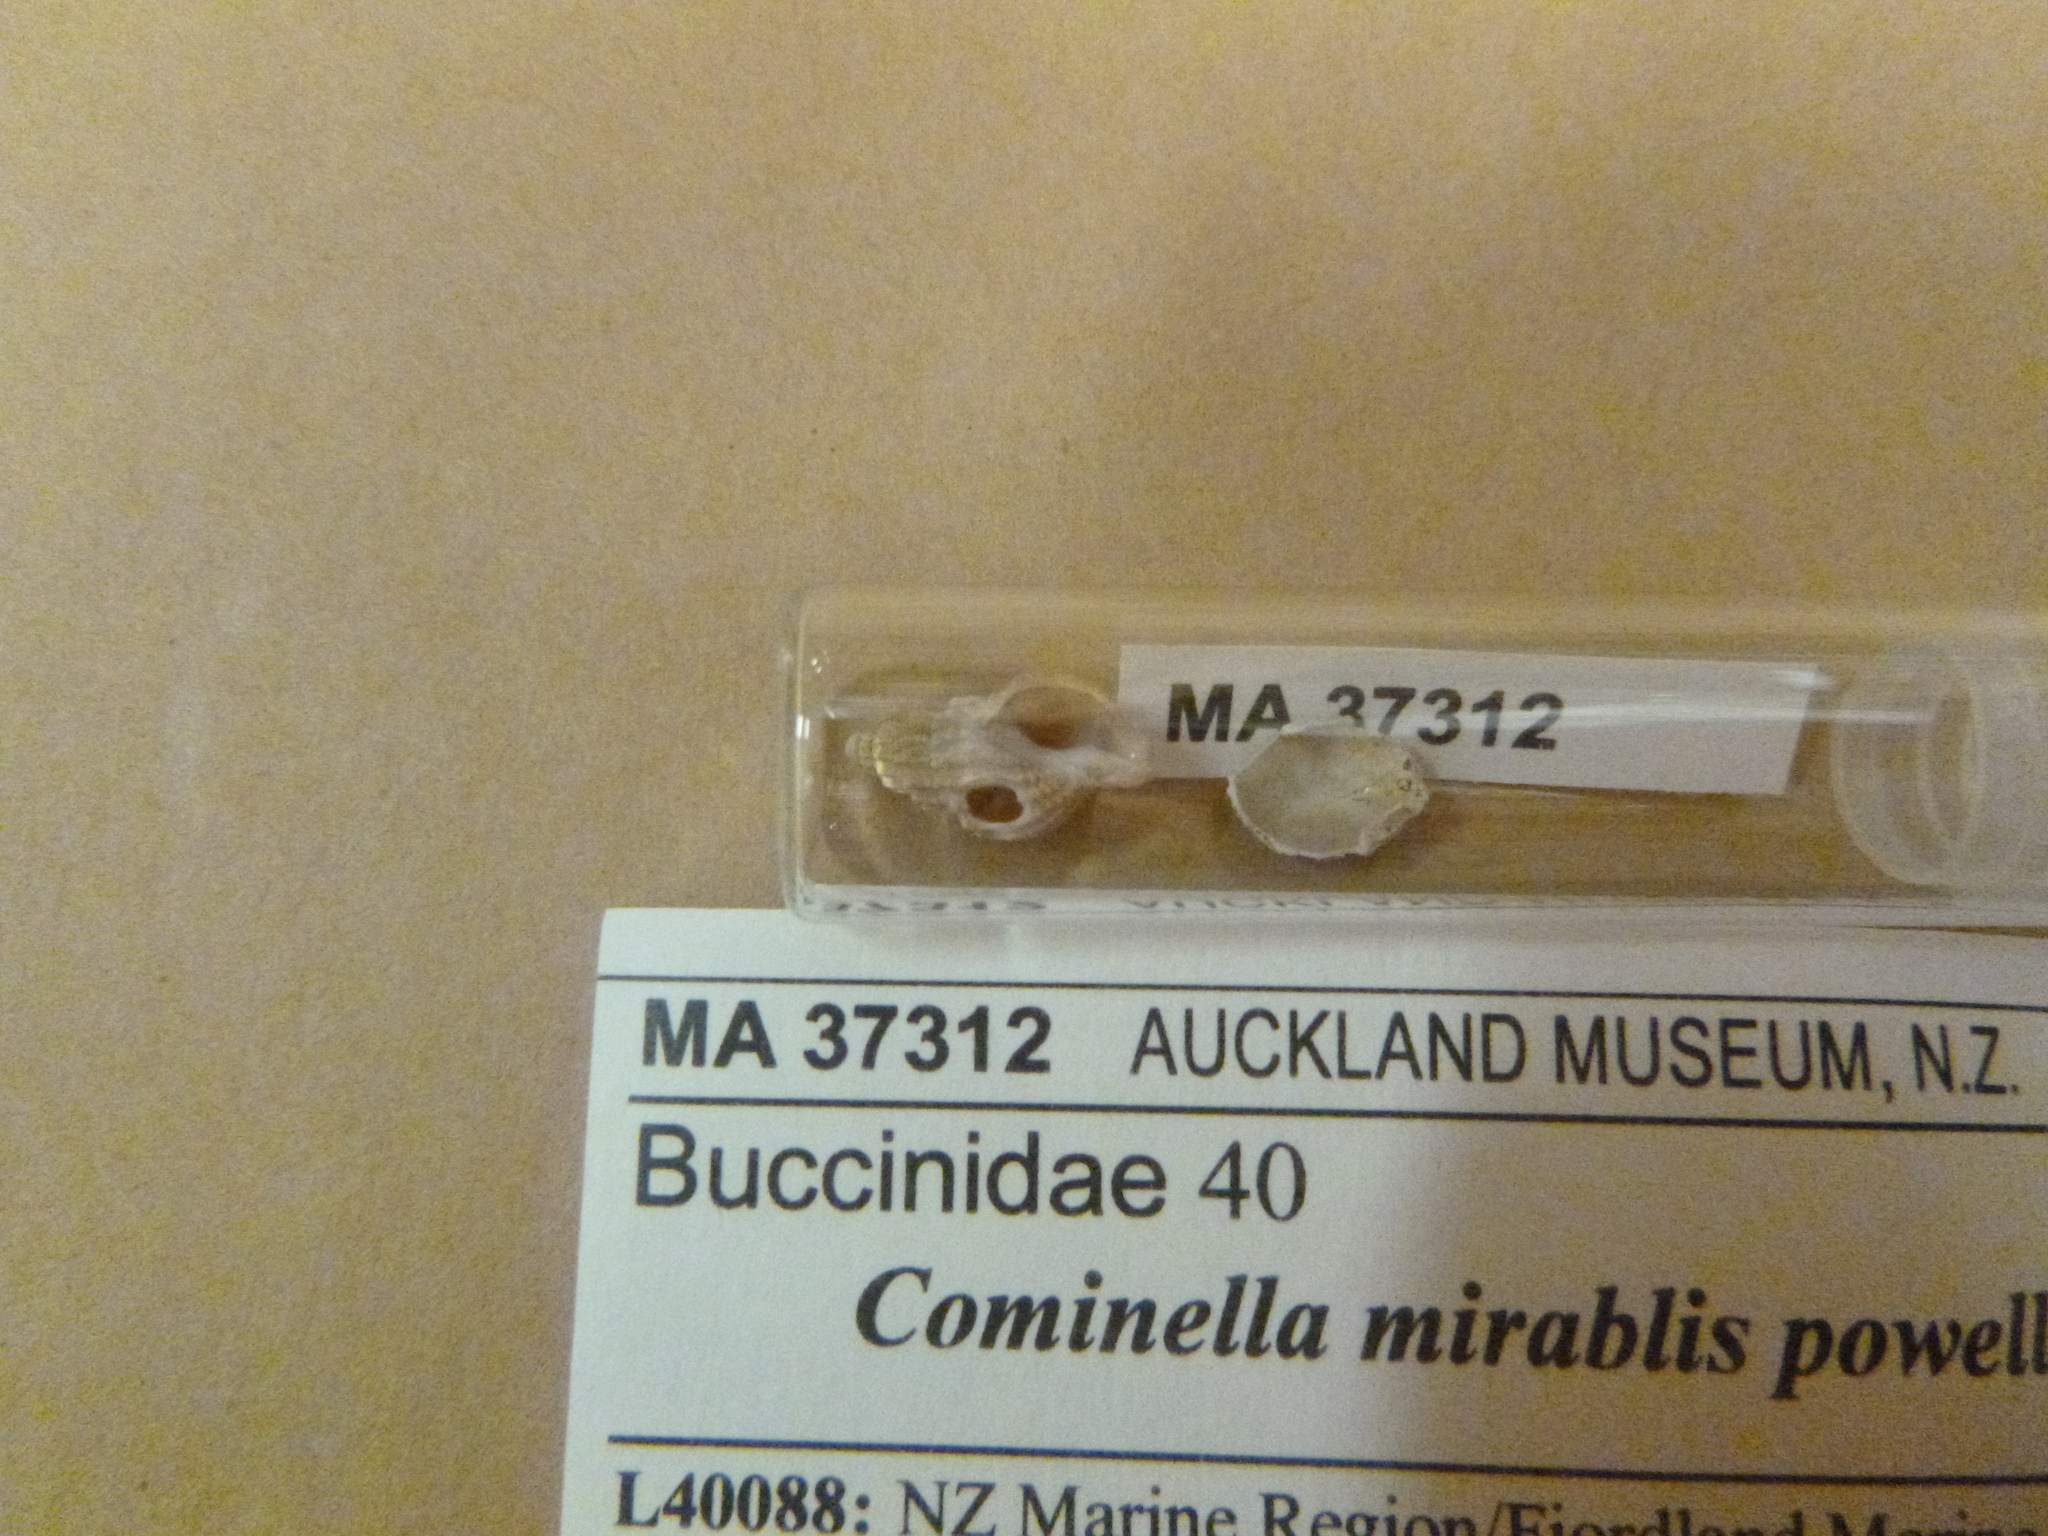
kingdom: Animalia
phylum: Mollusca
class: Gastropoda
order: Neogastropoda
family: Cominellidae
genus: Cominella
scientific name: Cominella mirabilis
